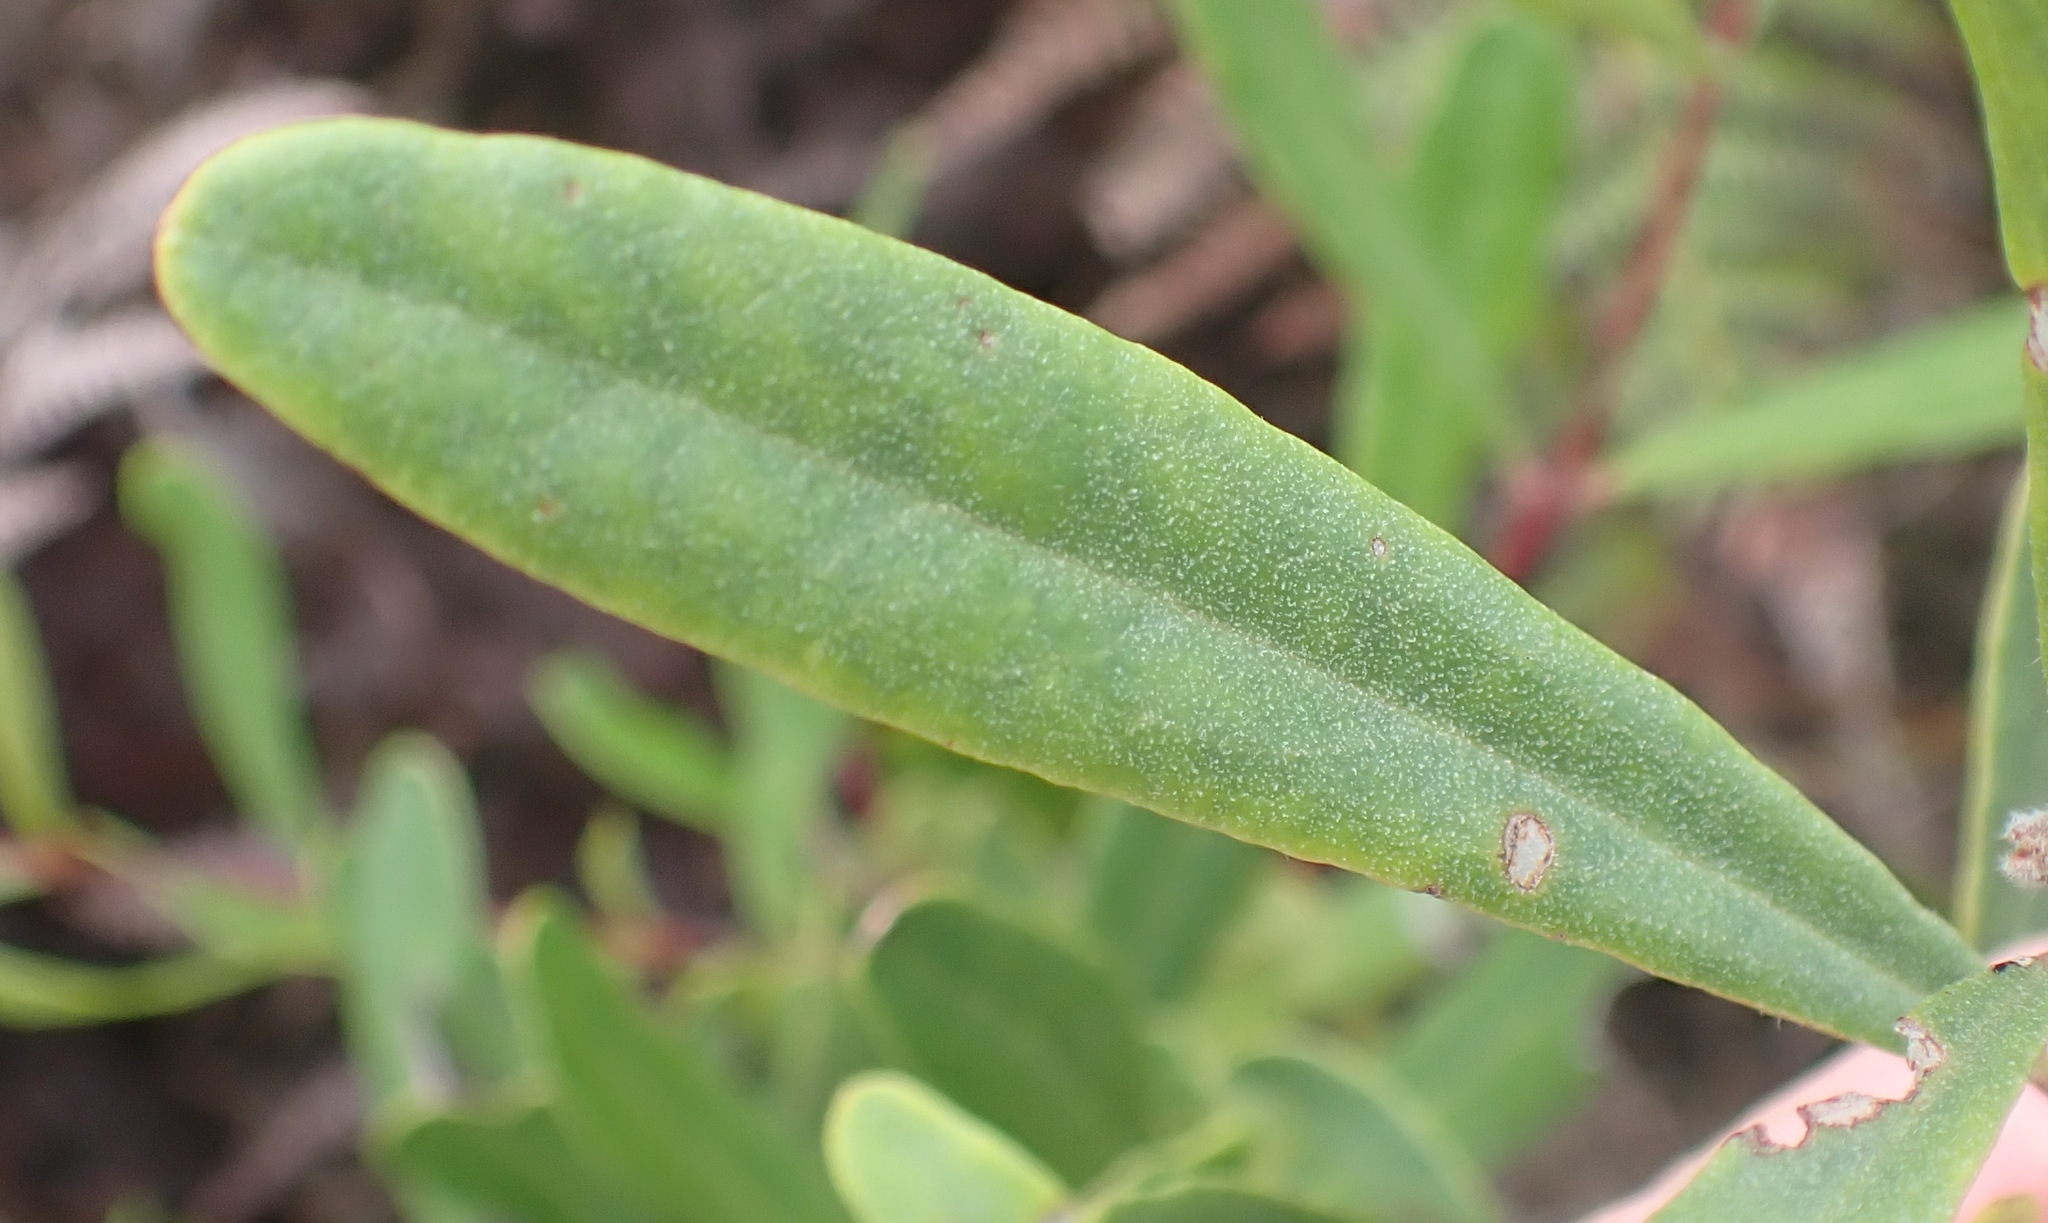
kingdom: Plantae
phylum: Tracheophyta
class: Magnoliopsida
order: Ericales
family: Ebenaceae
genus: Euclea
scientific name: Euclea crispa
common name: Blue guarri
